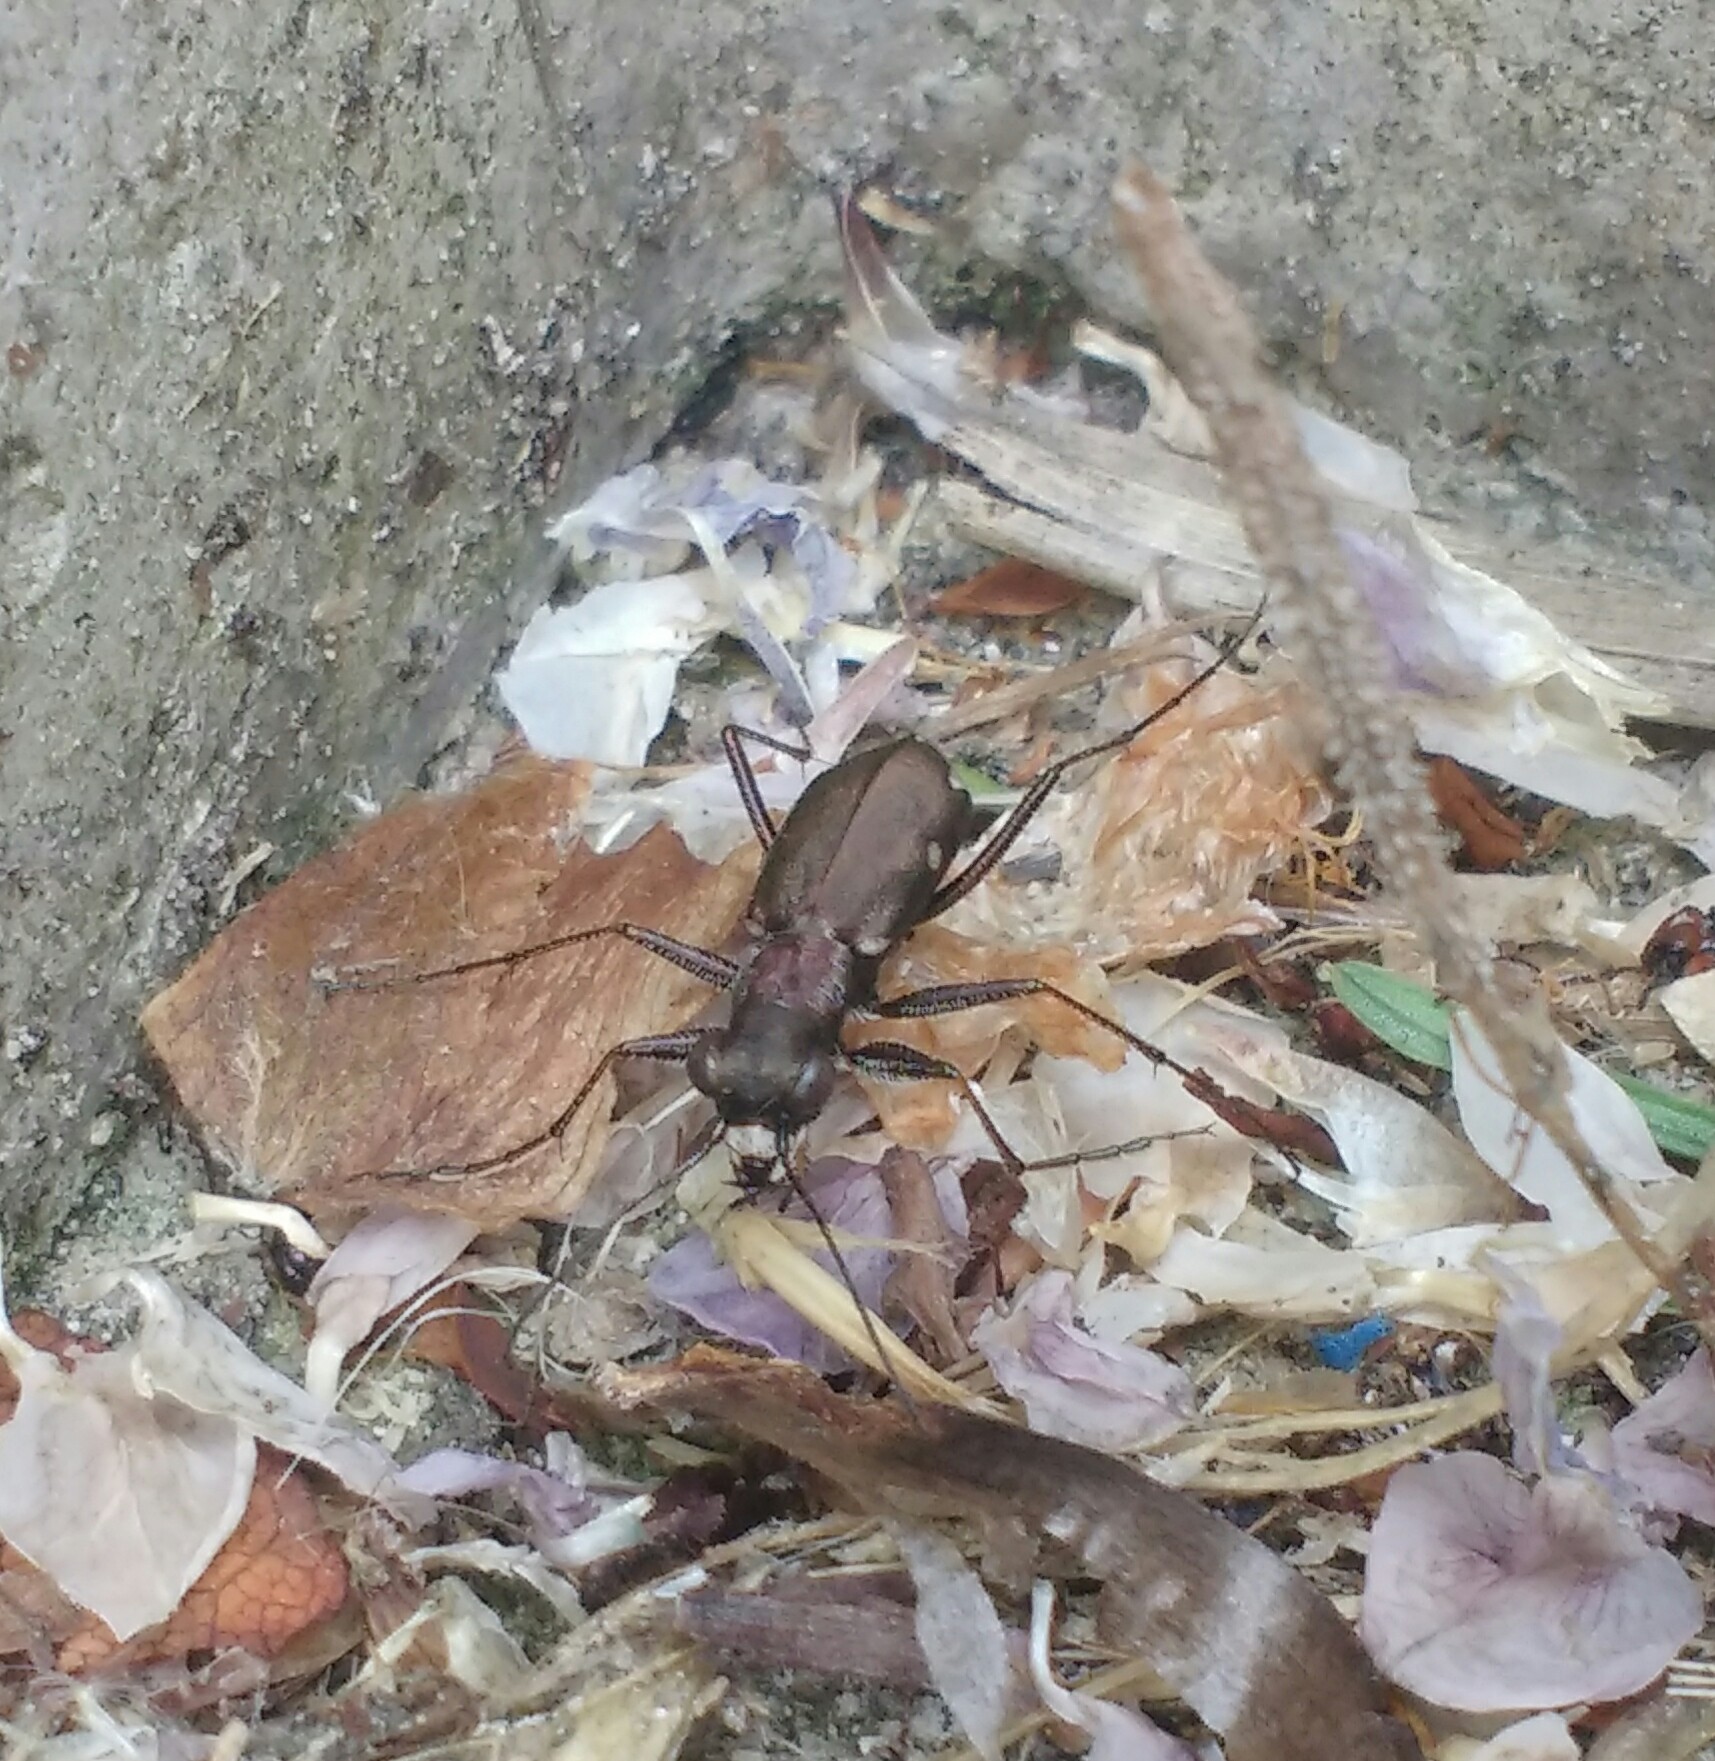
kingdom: Animalia
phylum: Arthropoda
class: Insecta
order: Coleoptera
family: Carabidae
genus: Cylindera
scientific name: Cylindera germanica
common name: Cliff tiger beetle
